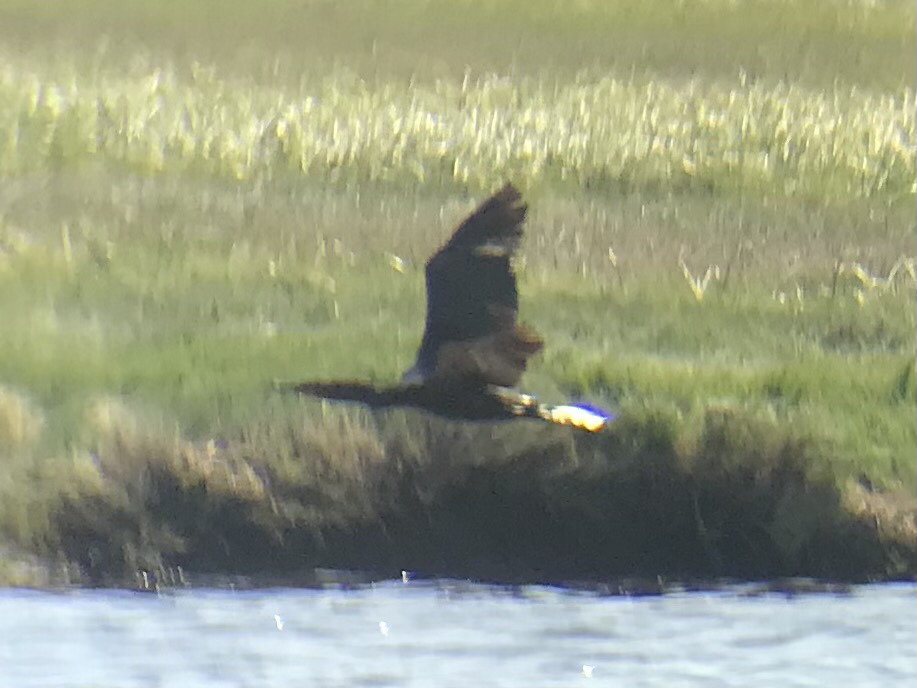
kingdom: Animalia
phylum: Chordata
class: Aves
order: Suliformes
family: Phalacrocoracidae
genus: Phalacrocorax
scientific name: Phalacrocorax auritus
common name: Double-crested cormorant
